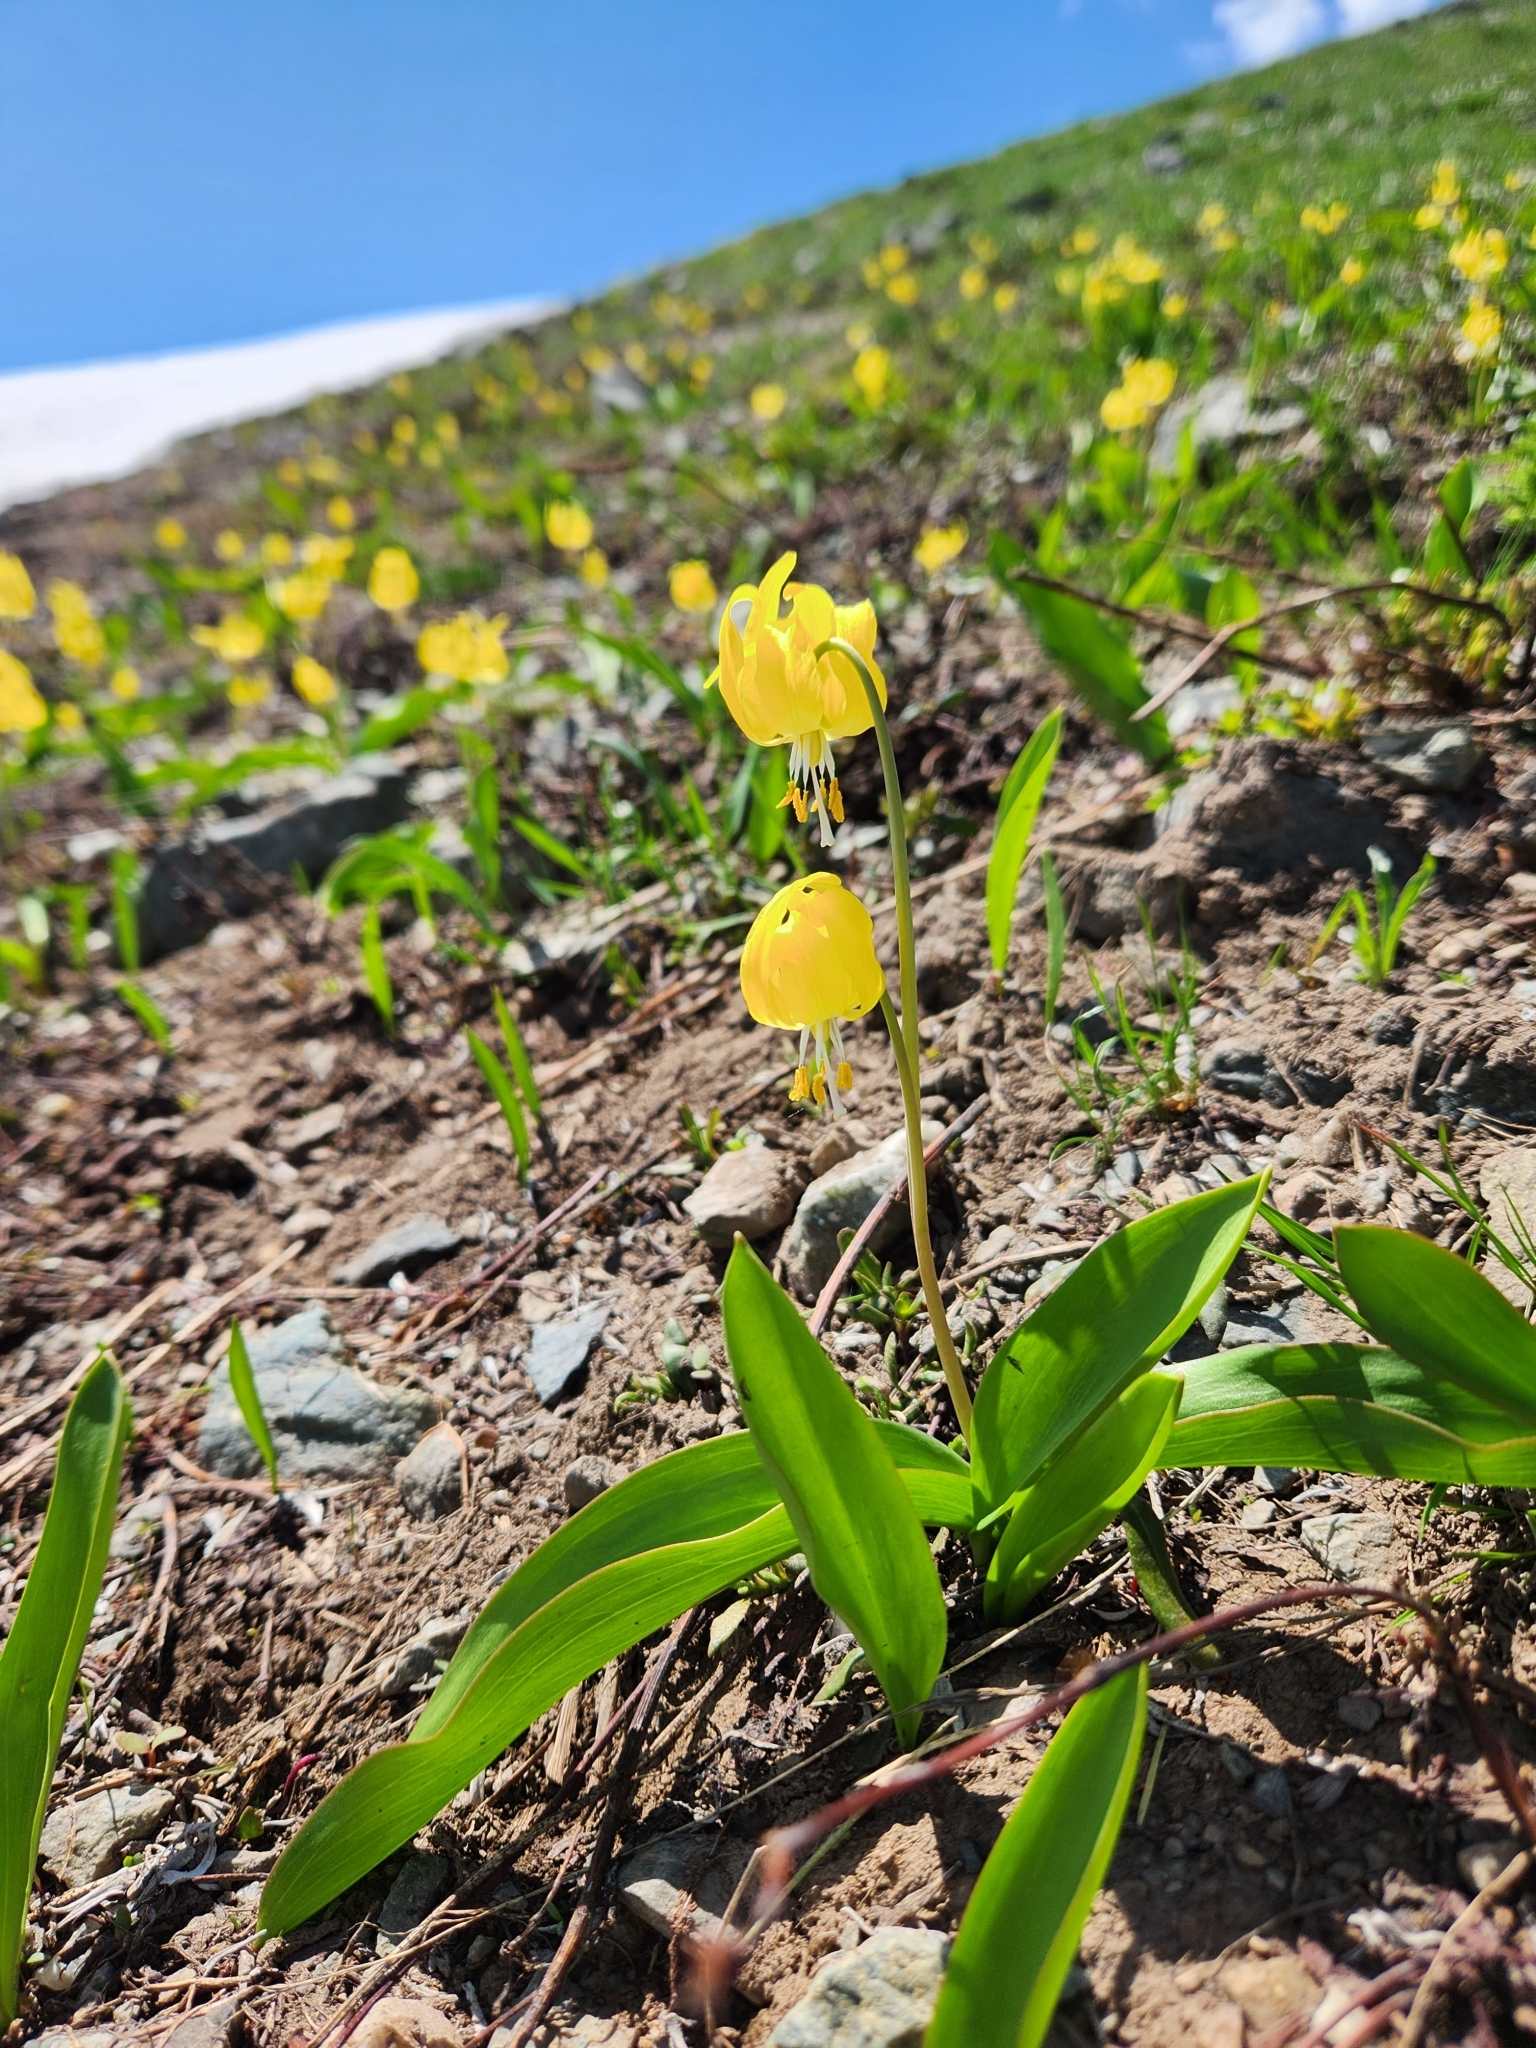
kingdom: Plantae
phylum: Tracheophyta
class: Liliopsida
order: Liliales
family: Liliaceae
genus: Erythronium
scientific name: Erythronium grandiflorum
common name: Avalanche-lily
